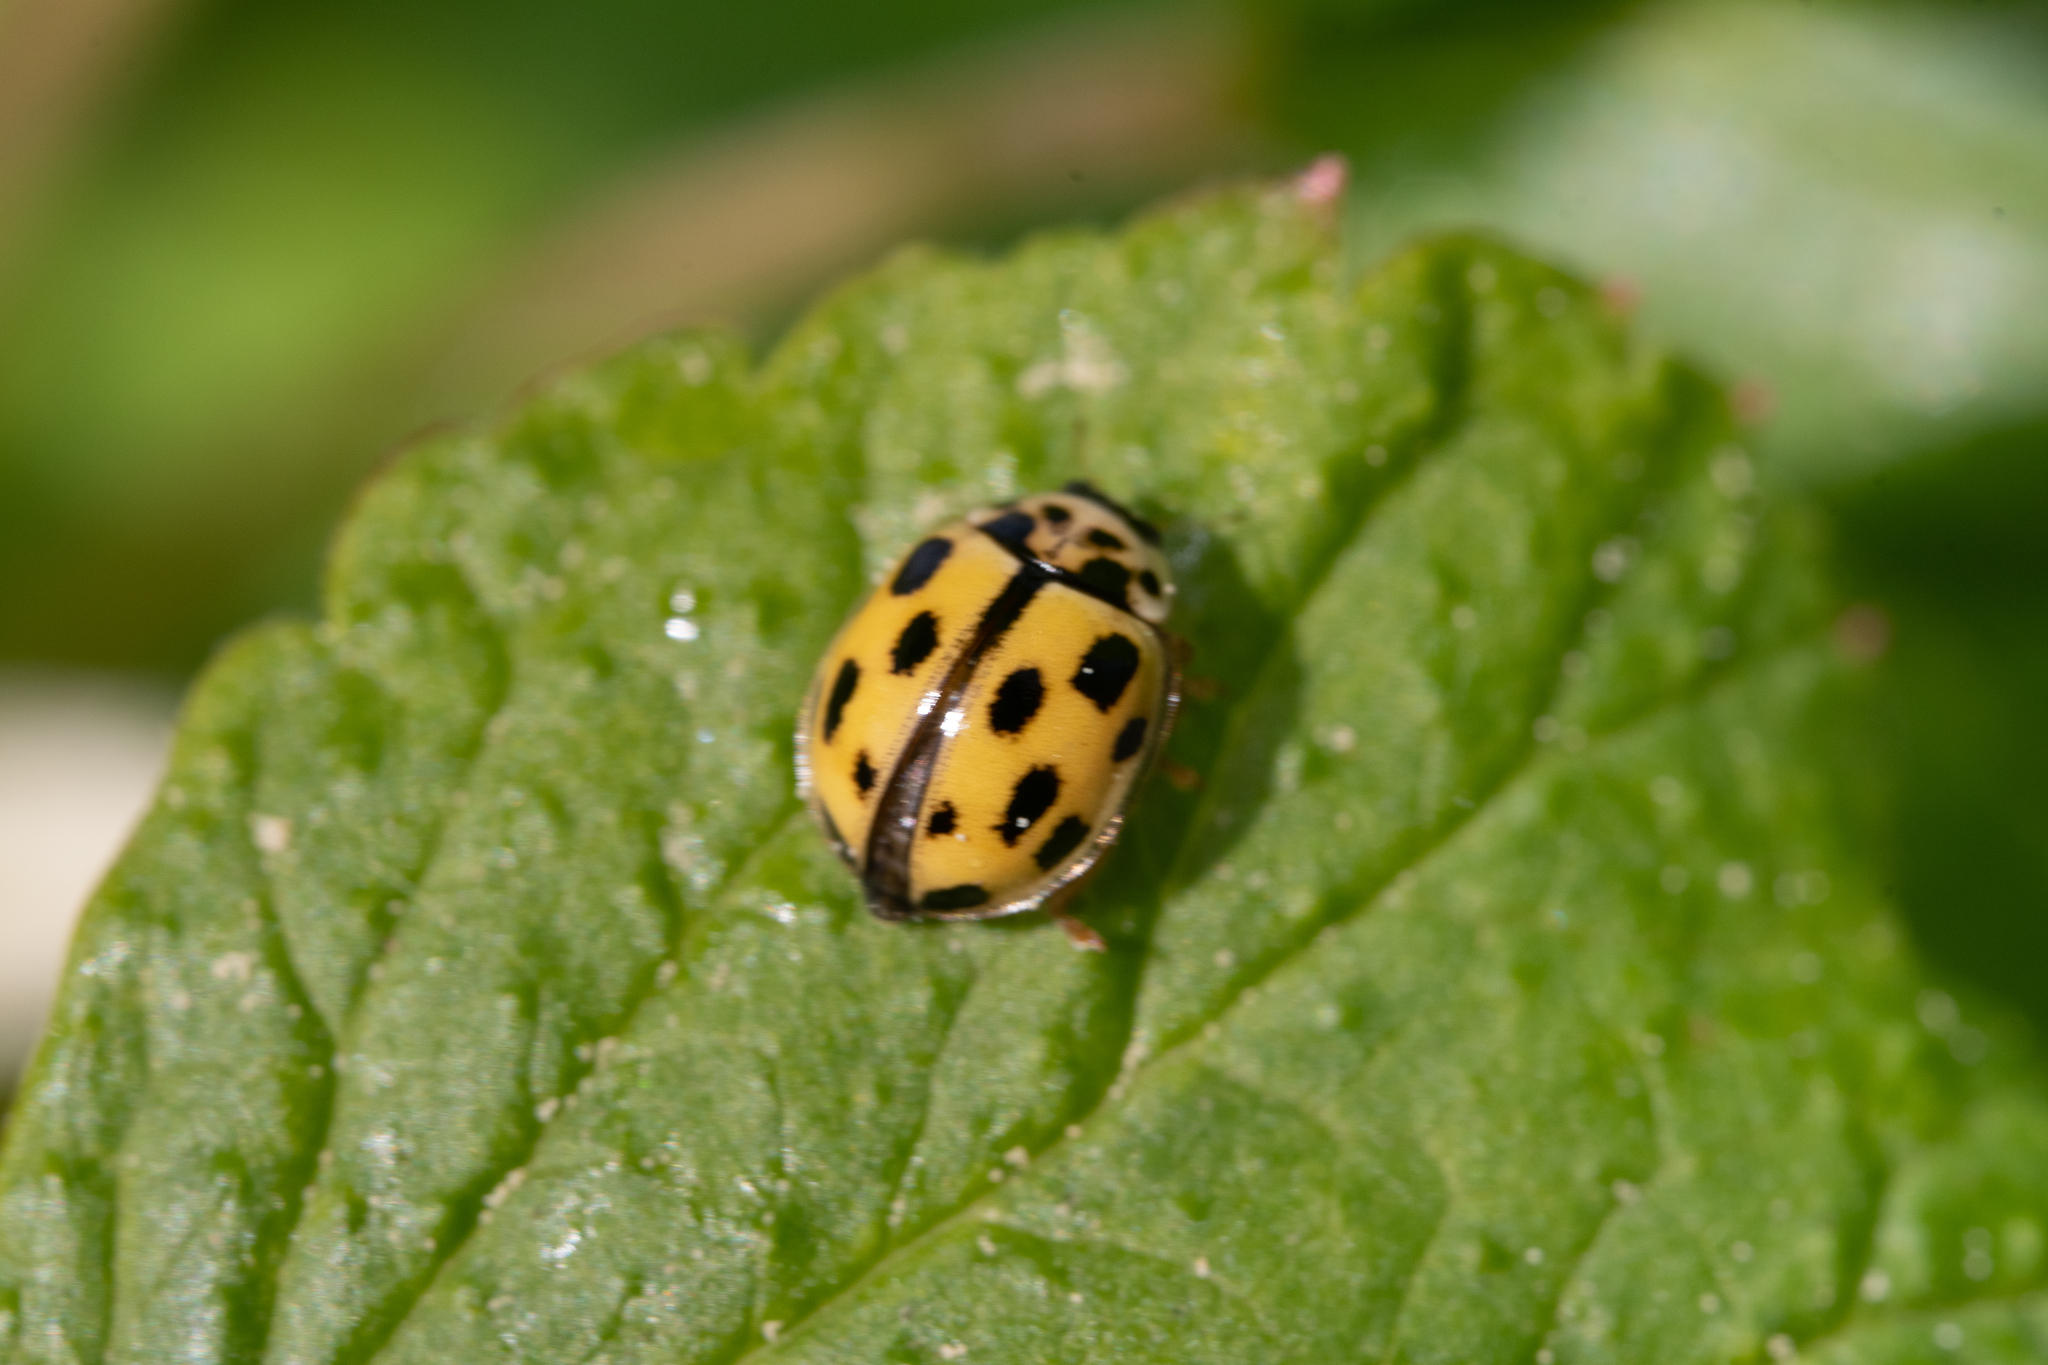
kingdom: Animalia
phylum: Arthropoda
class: Insecta
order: Coleoptera
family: Coccinellidae
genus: Propylaea
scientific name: Propylaea quatuordecimpunctata
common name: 14-spotted ladybird beetle
